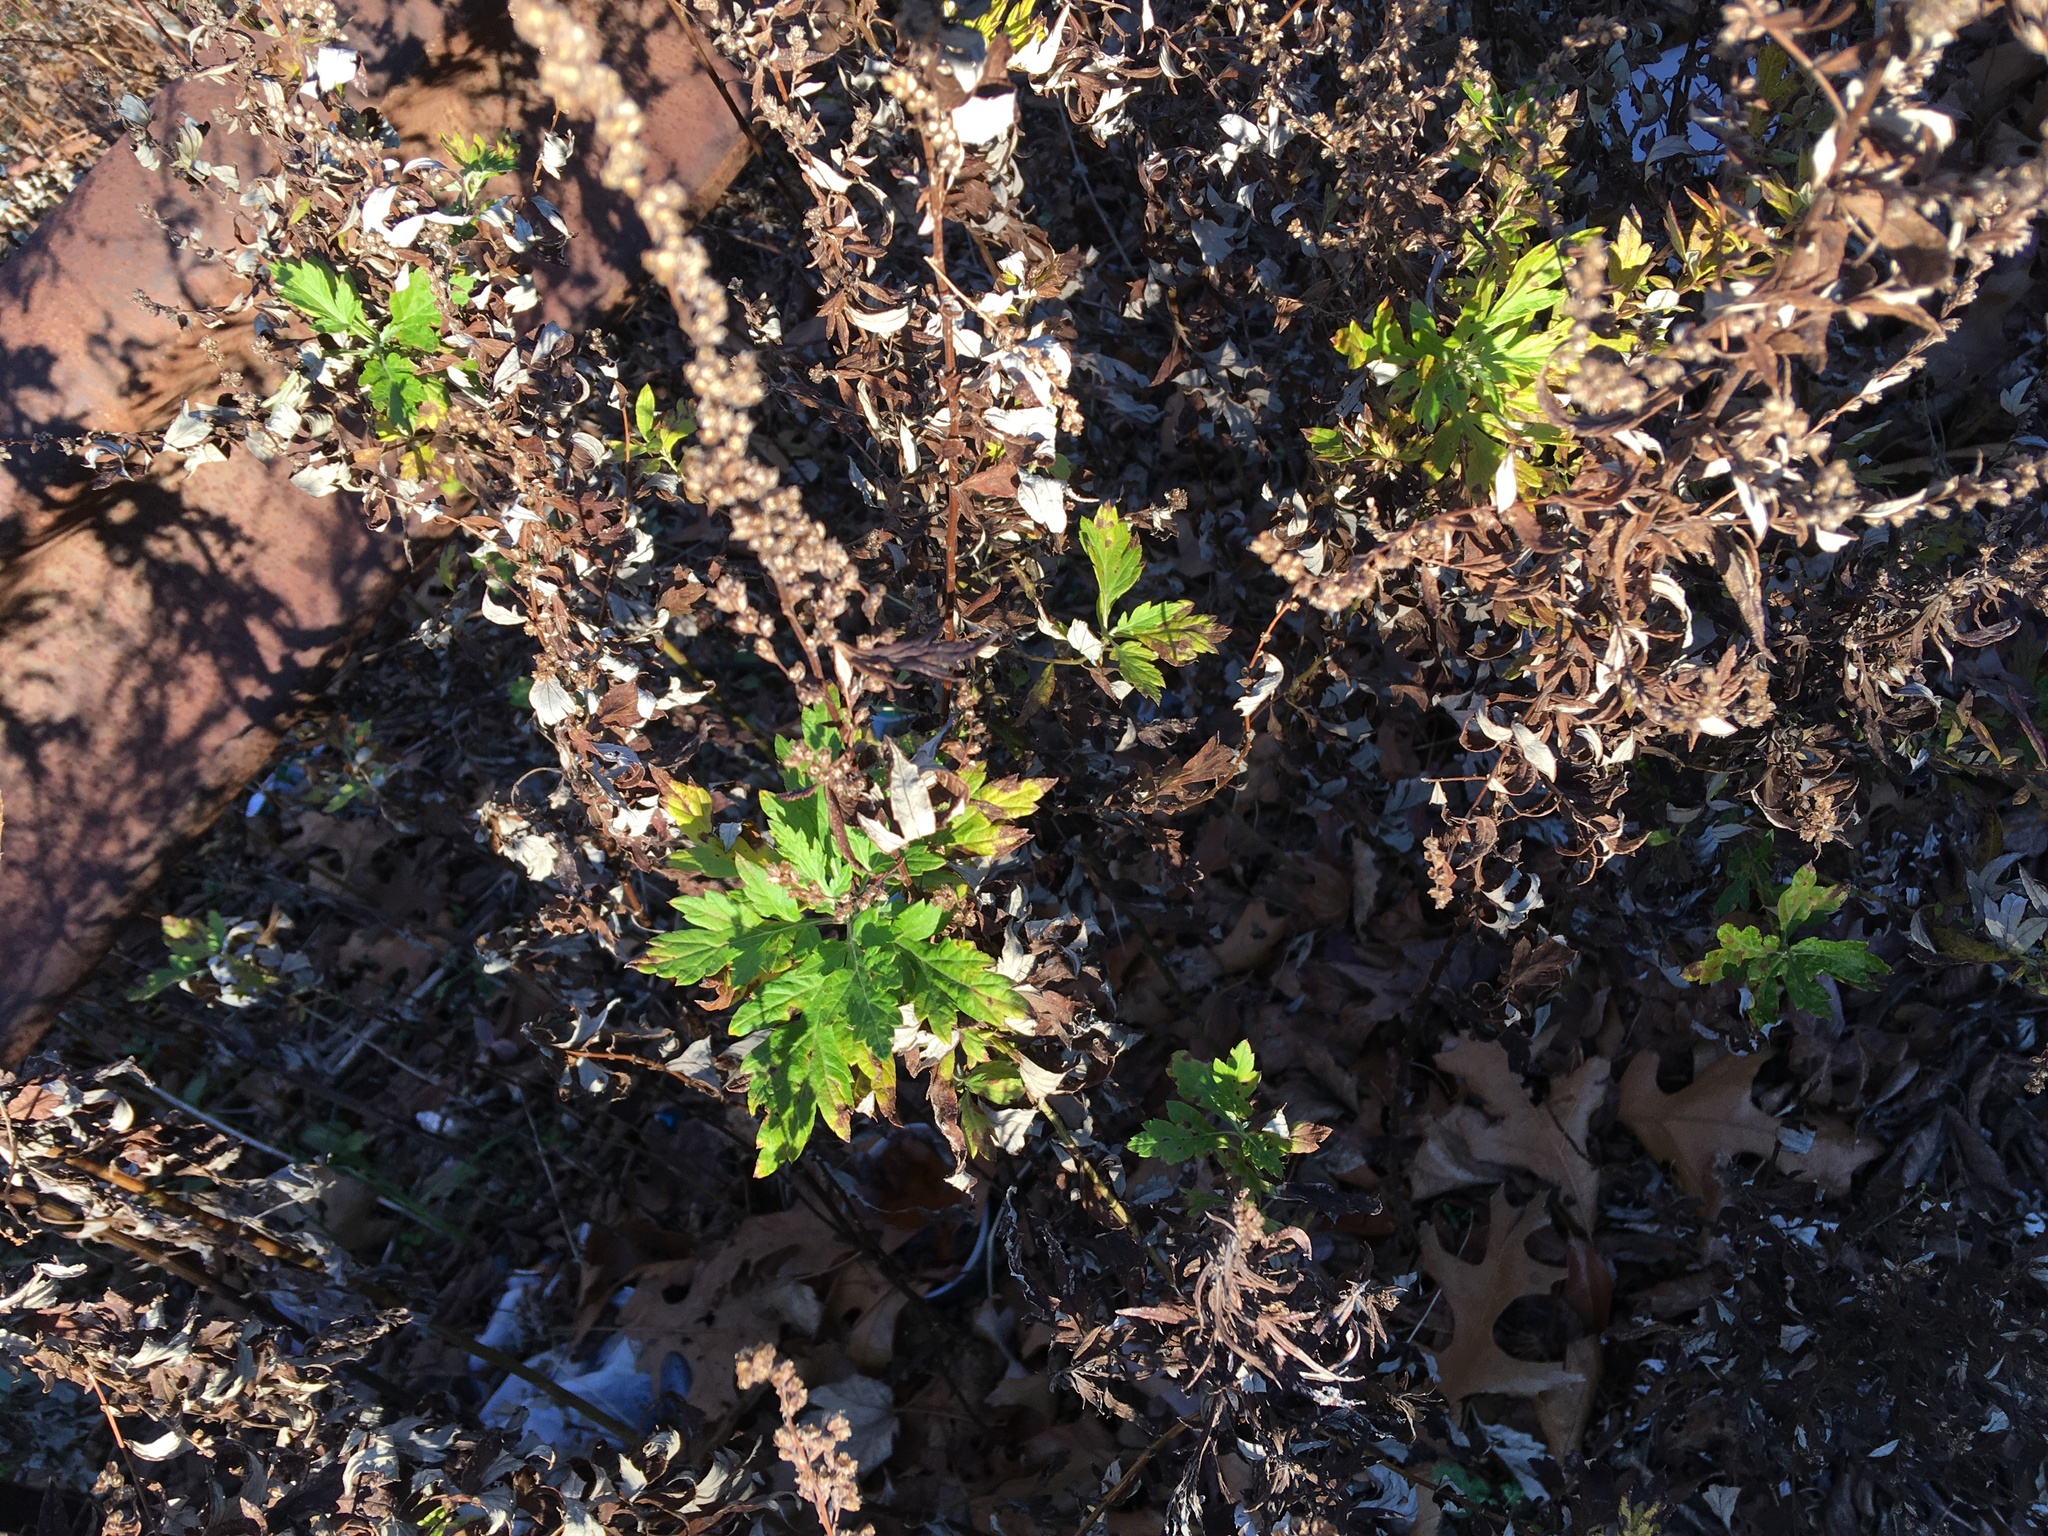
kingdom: Plantae
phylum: Tracheophyta
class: Magnoliopsida
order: Asterales
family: Asteraceae
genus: Artemisia
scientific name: Artemisia vulgaris
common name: Mugwort
